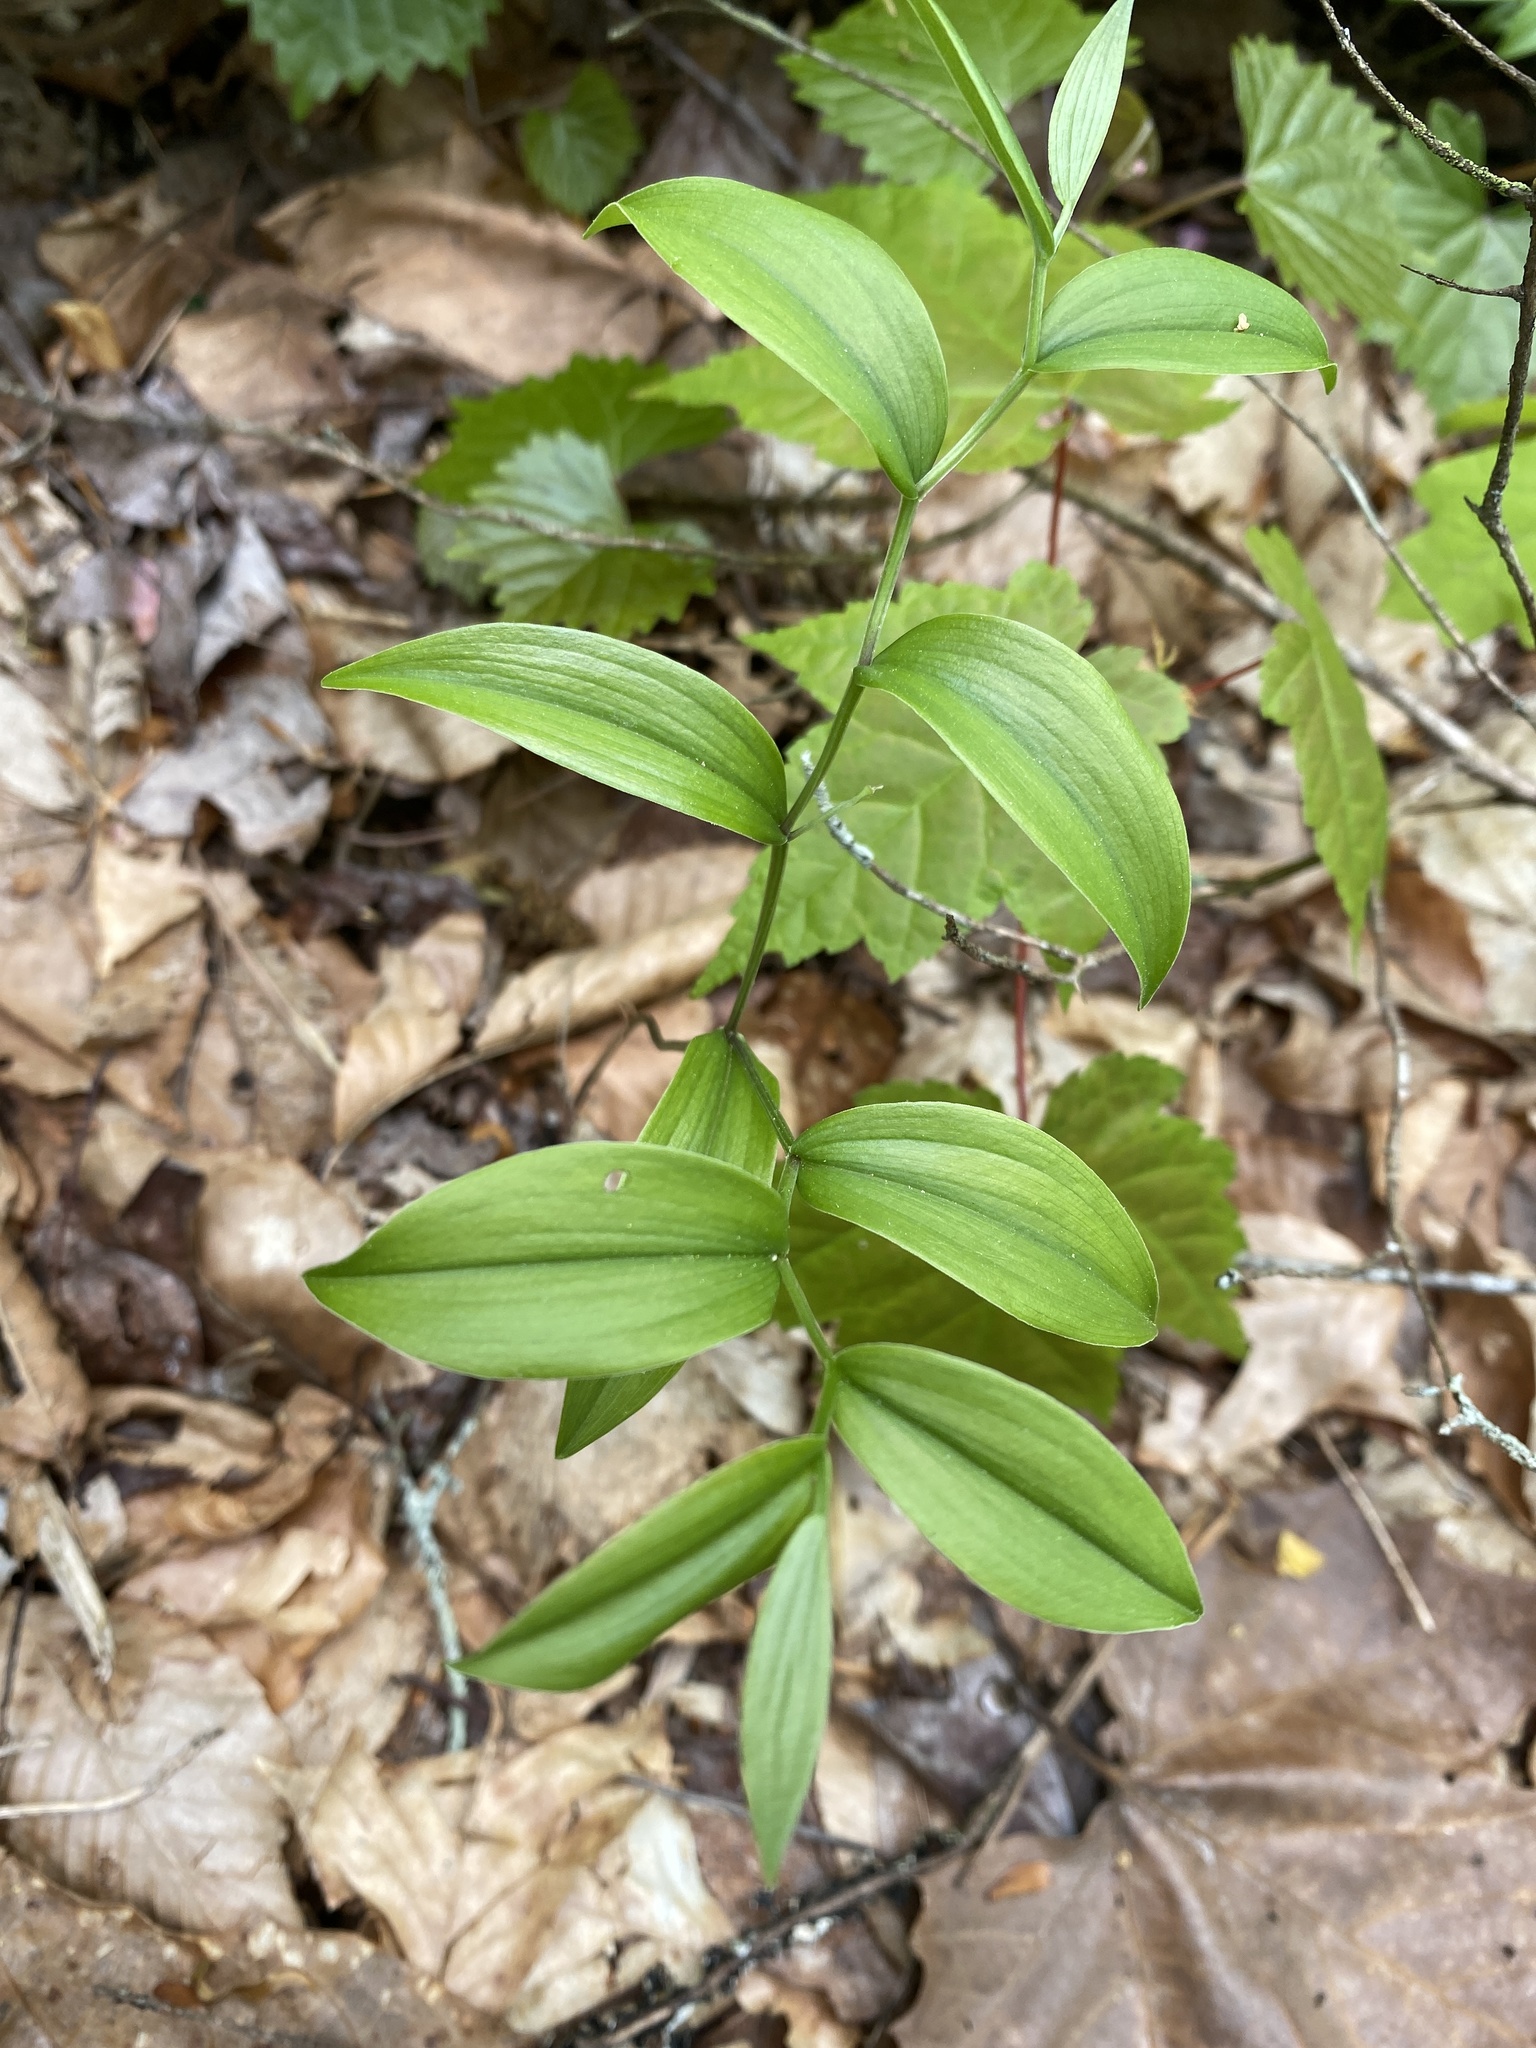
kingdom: Plantae
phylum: Tracheophyta
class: Liliopsida
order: Liliales
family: Colchicaceae
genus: Uvularia
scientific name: Uvularia puberula
